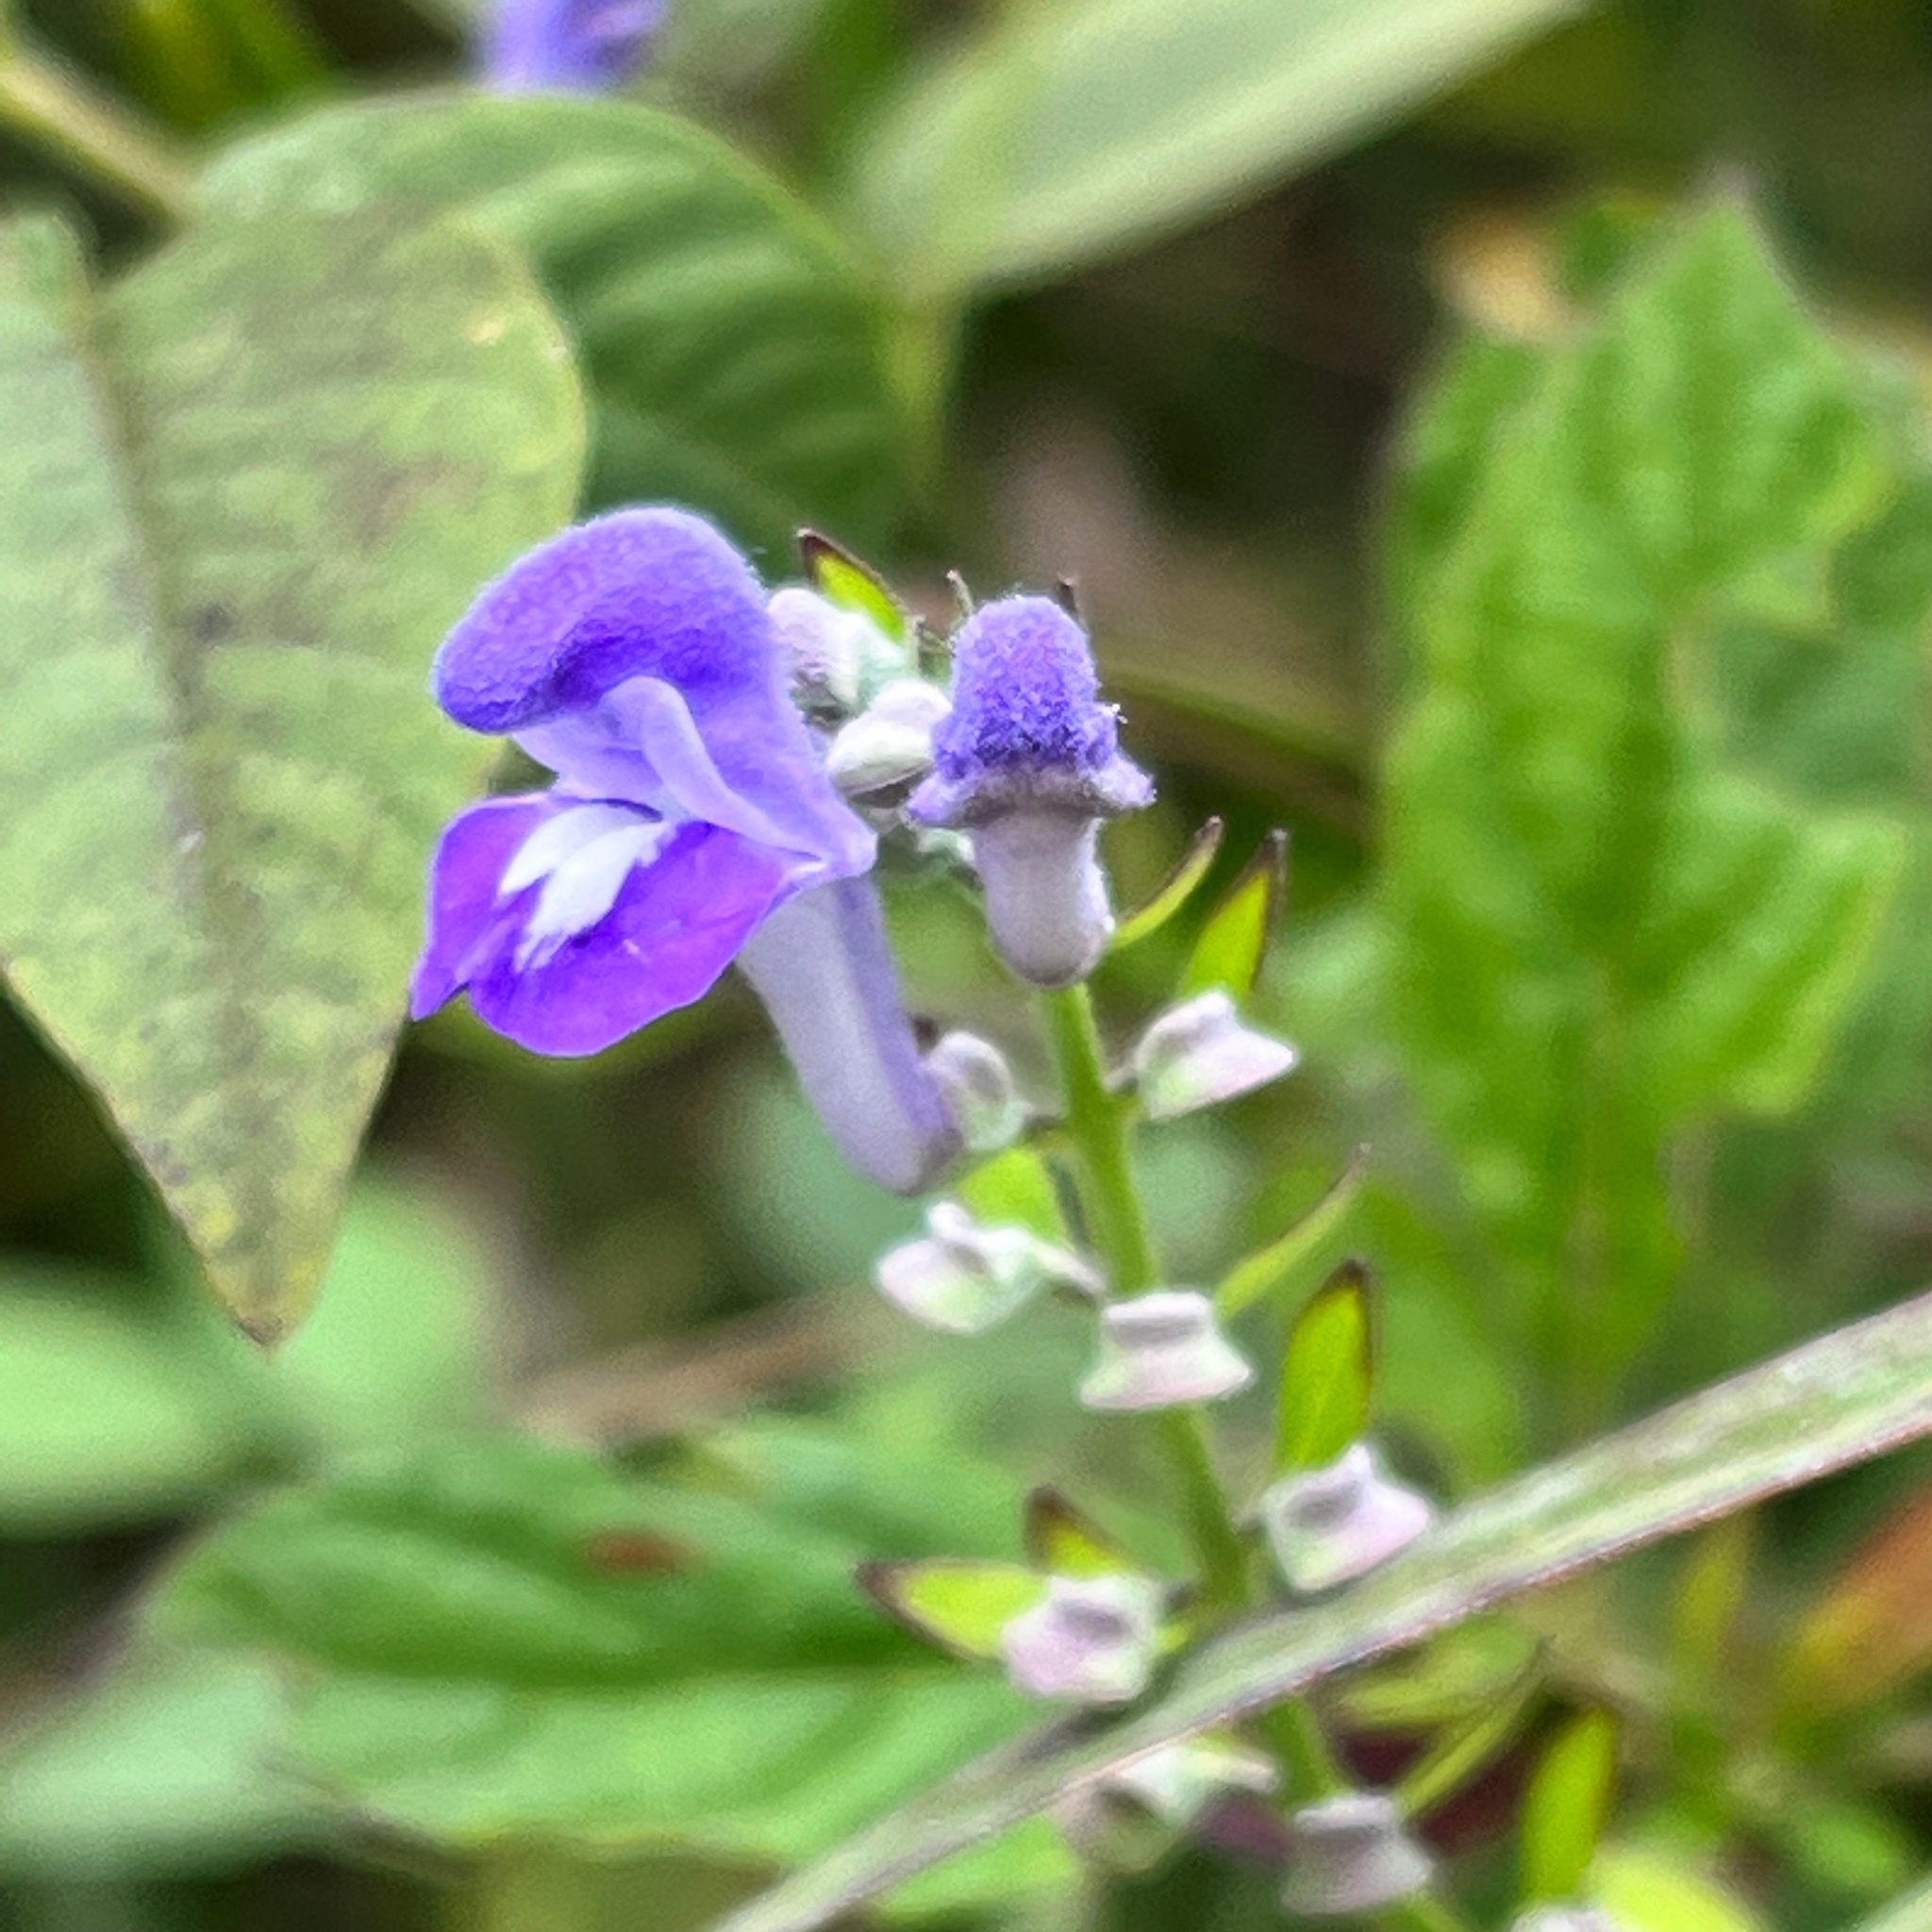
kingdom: Plantae
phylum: Tracheophyta
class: Magnoliopsida
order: Lamiales
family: Lamiaceae
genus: Scutellaria
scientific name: Scutellaria incana
